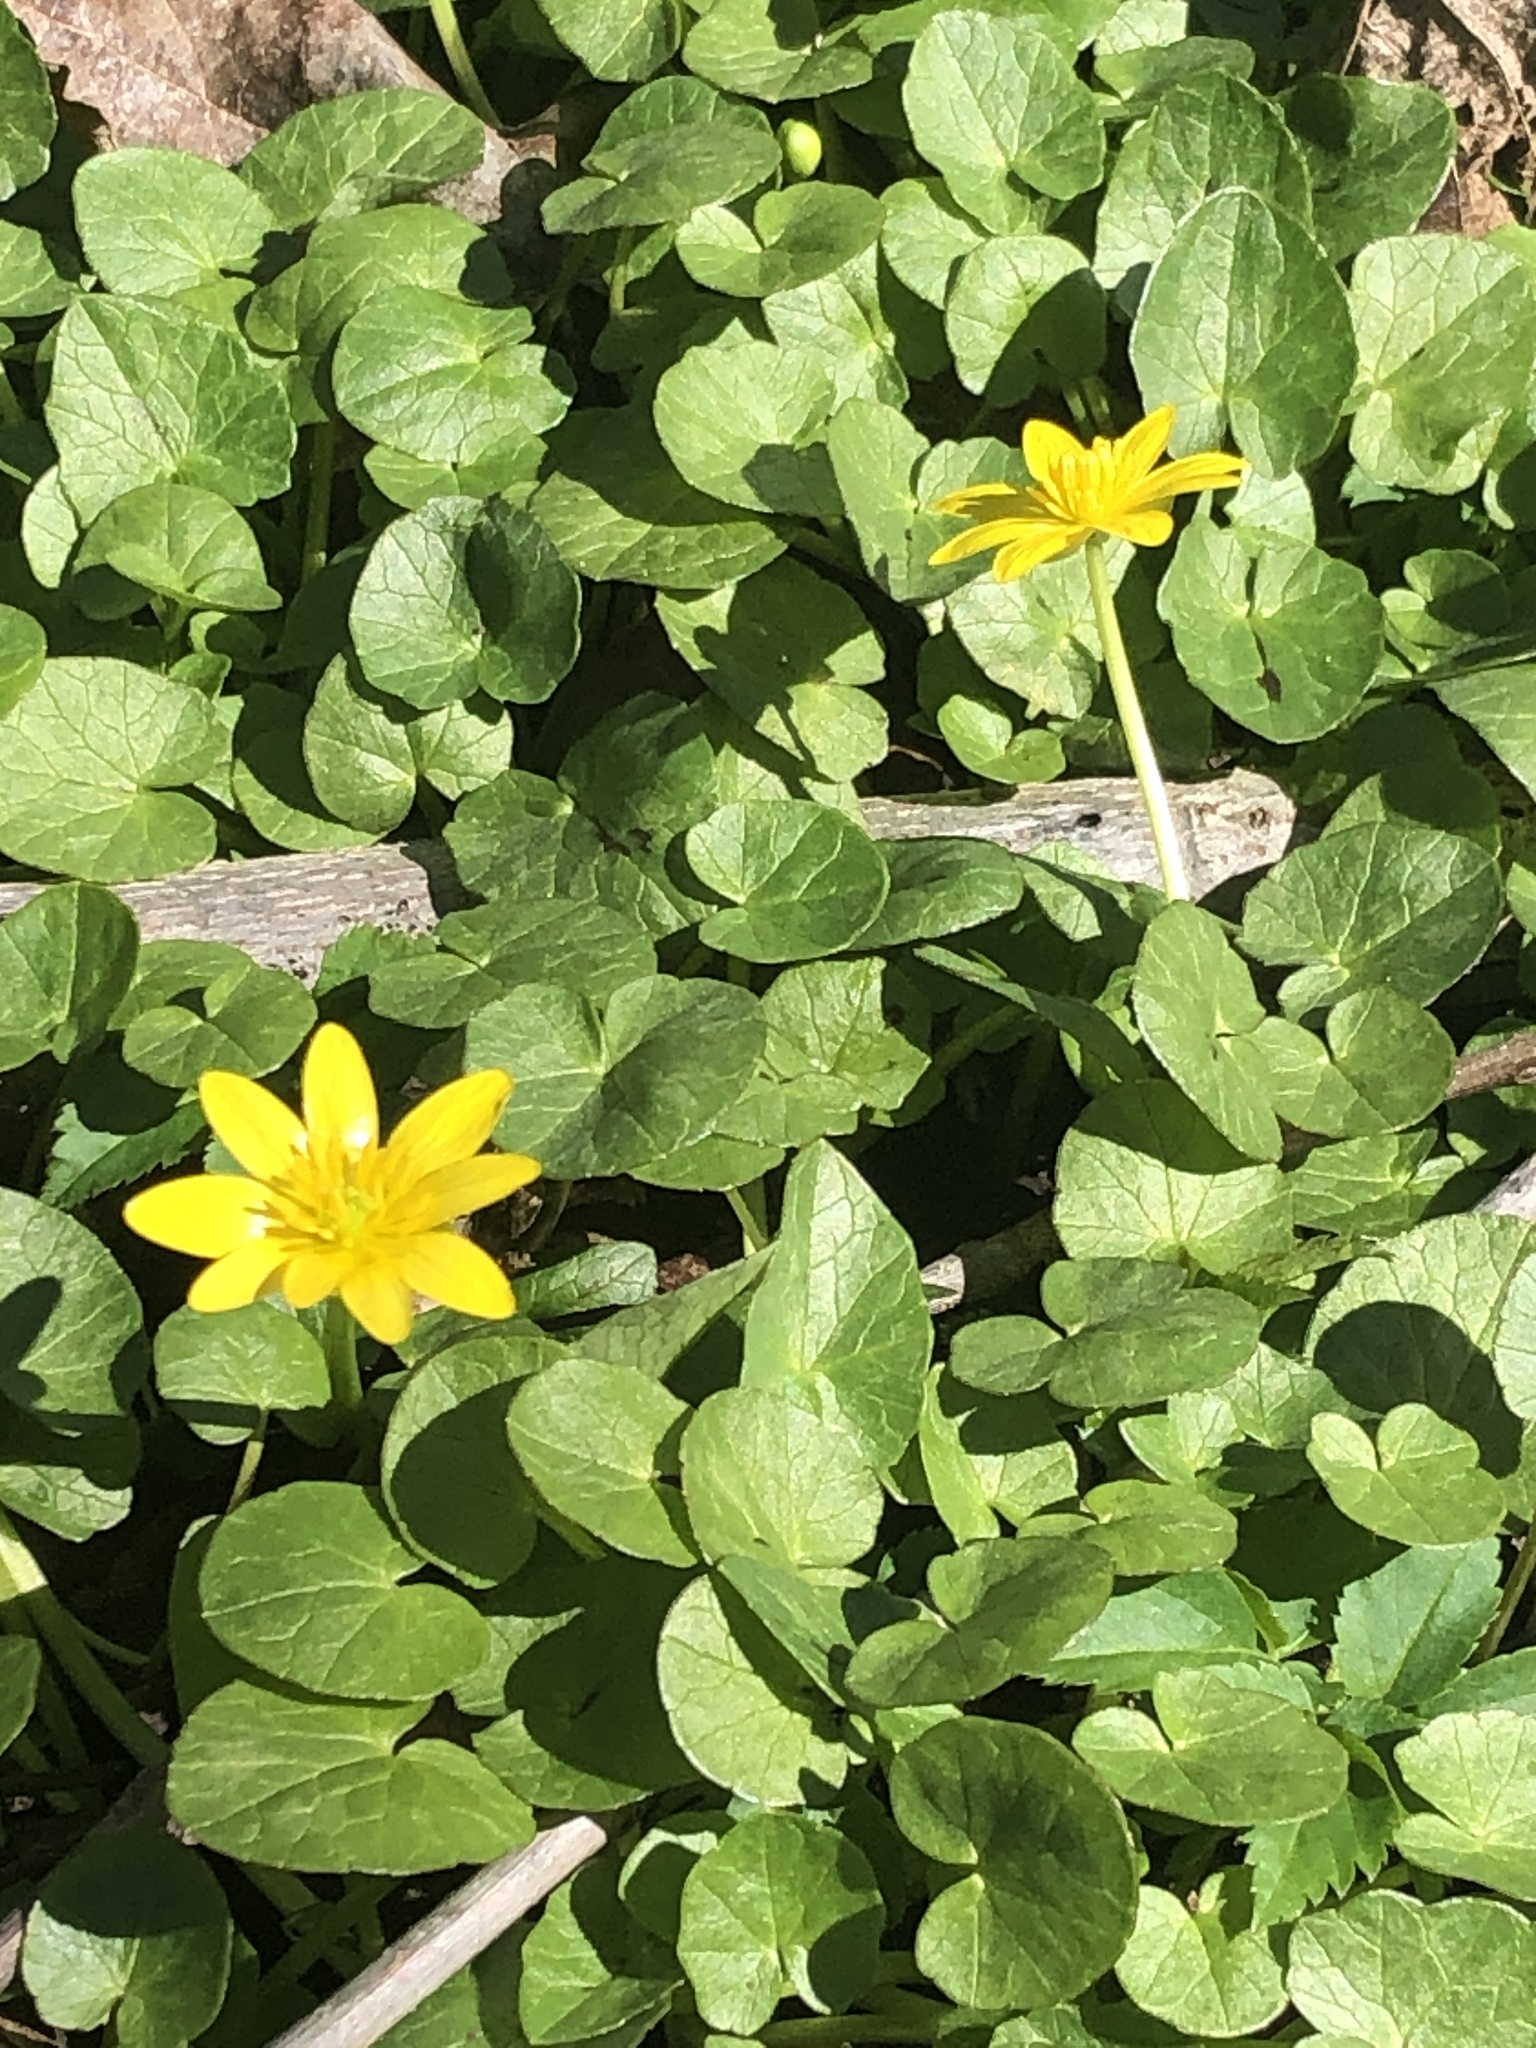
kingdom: Plantae
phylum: Tracheophyta
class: Magnoliopsida
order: Ranunculales
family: Ranunculaceae
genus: Ficaria
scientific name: Ficaria verna
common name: Lesser celandine
